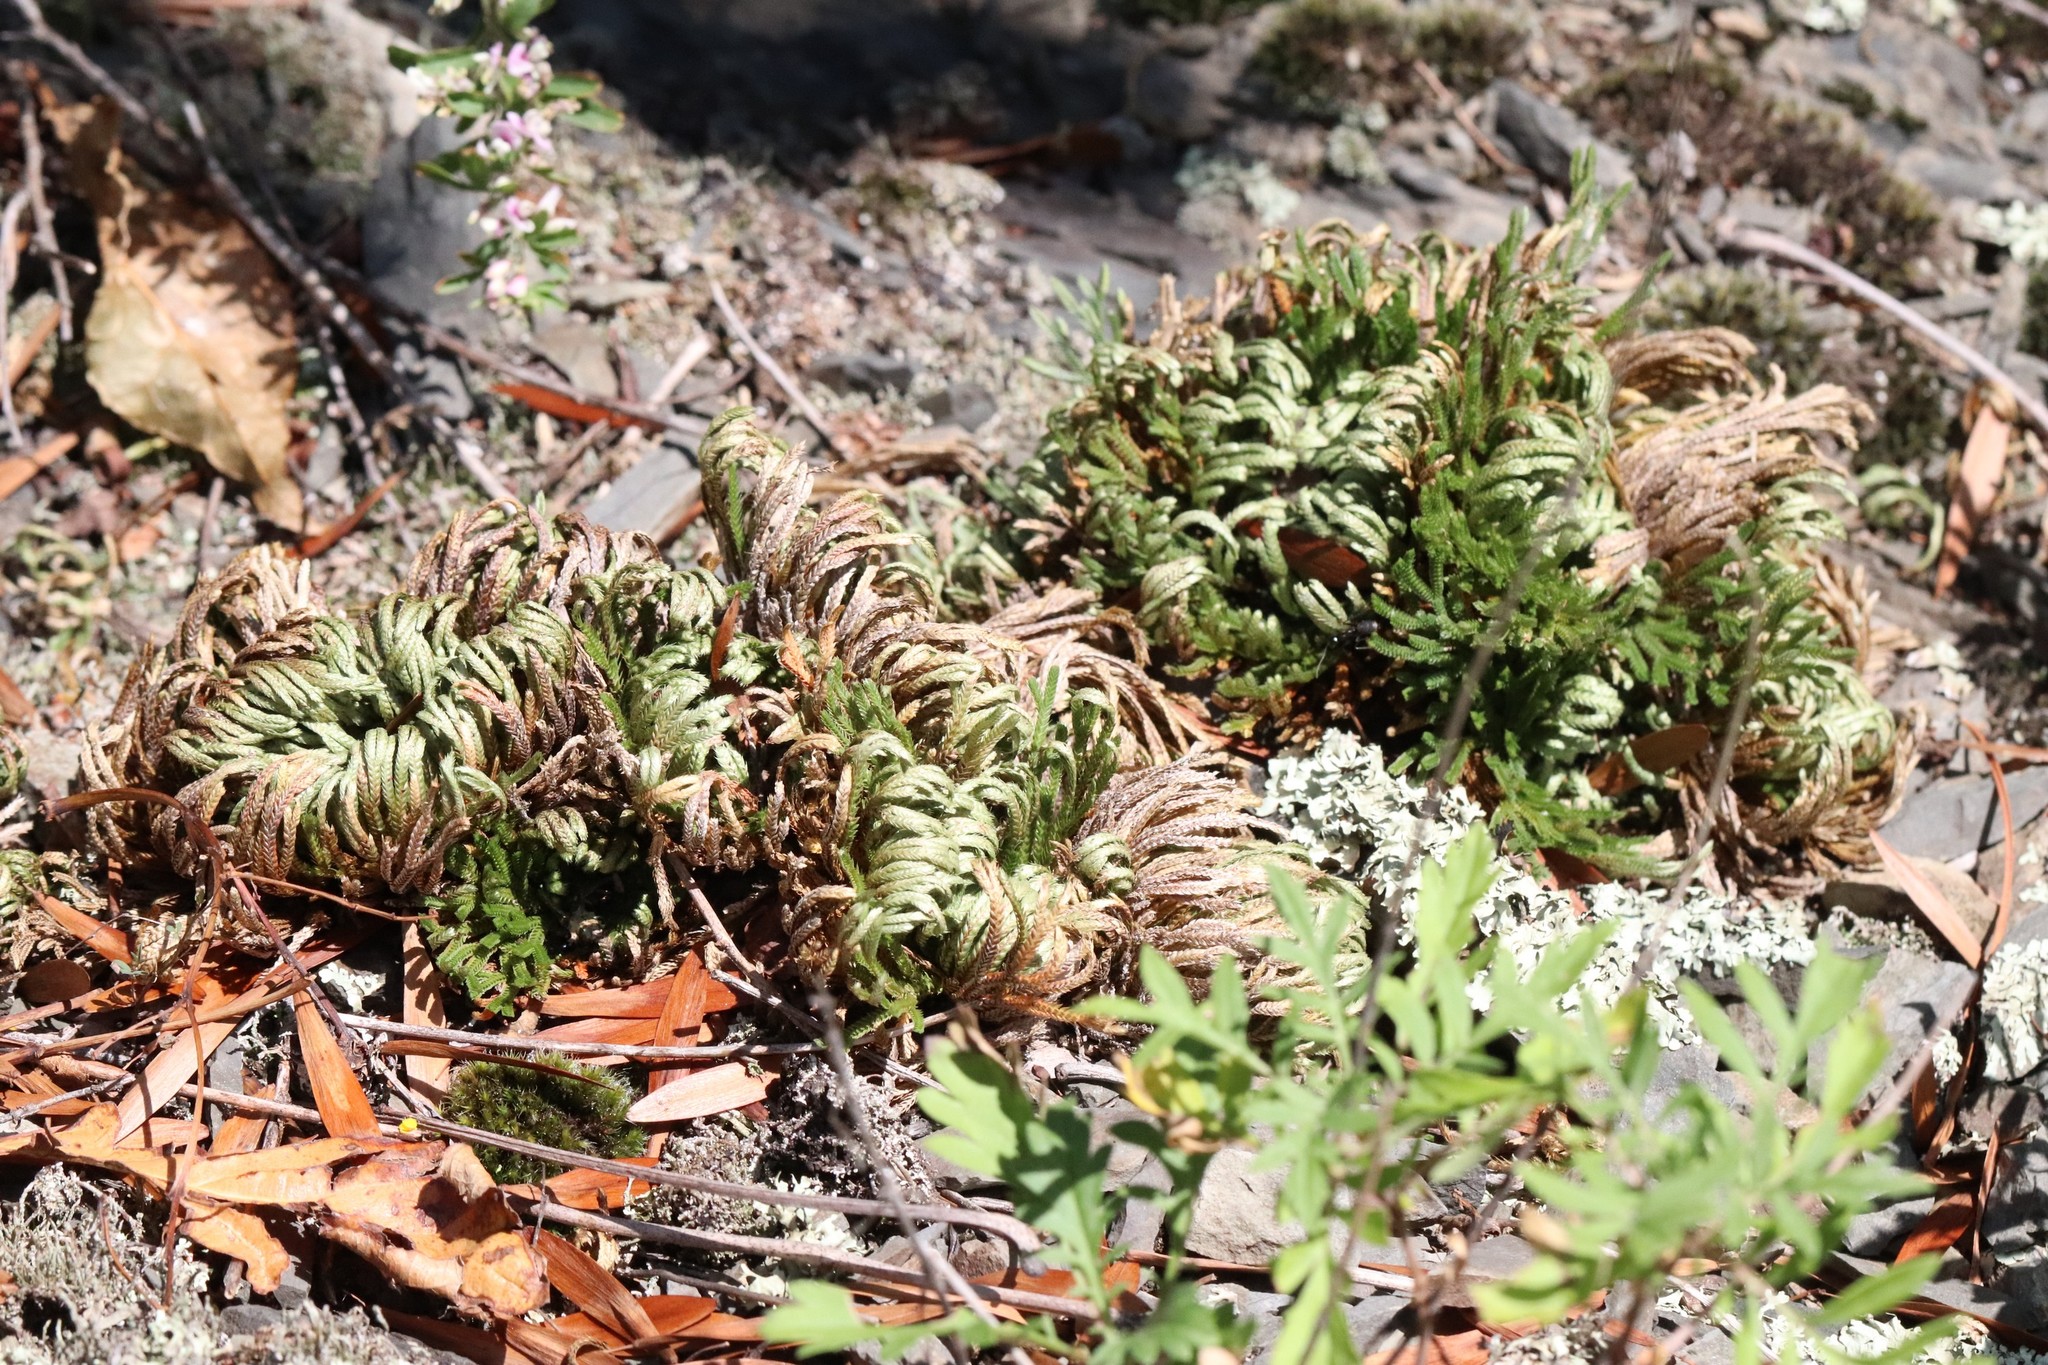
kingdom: Plantae
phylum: Tracheophyta
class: Lycopodiopsida
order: Selaginellales
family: Selaginellaceae
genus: Selaginella
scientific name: Selaginella tamariscina
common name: Little-club-moss
